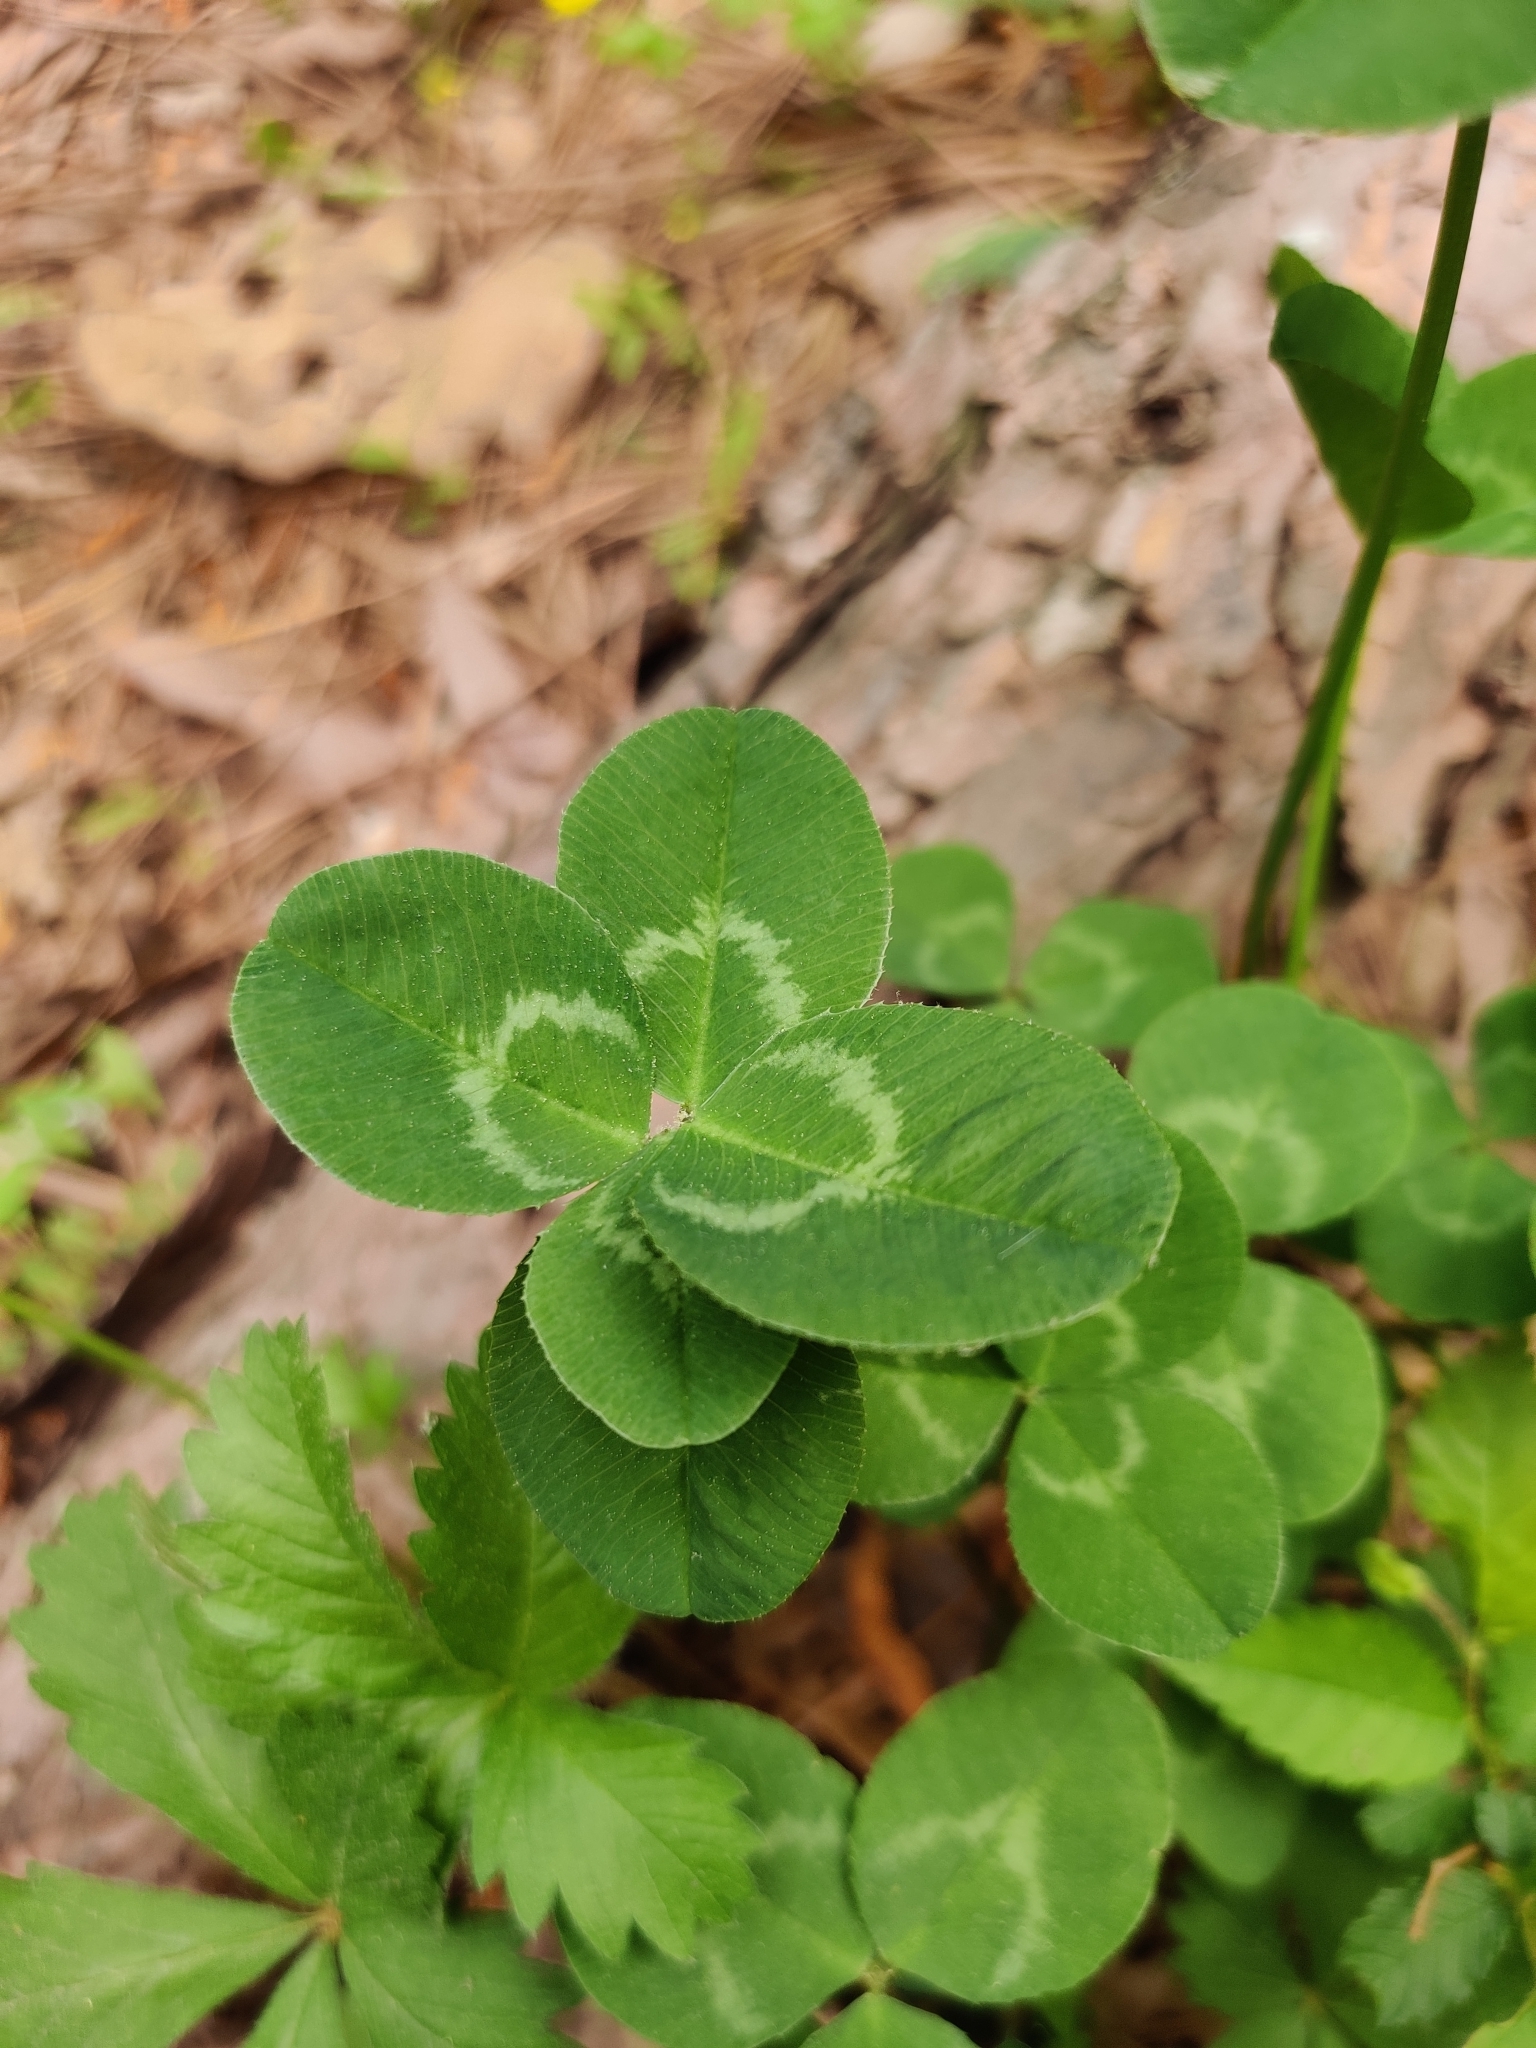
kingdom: Plantae
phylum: Tracheophyta
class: Magnoliopsida
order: Fabales
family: Fabaceae
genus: Trifolium
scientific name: Trifolium repens
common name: White clover
